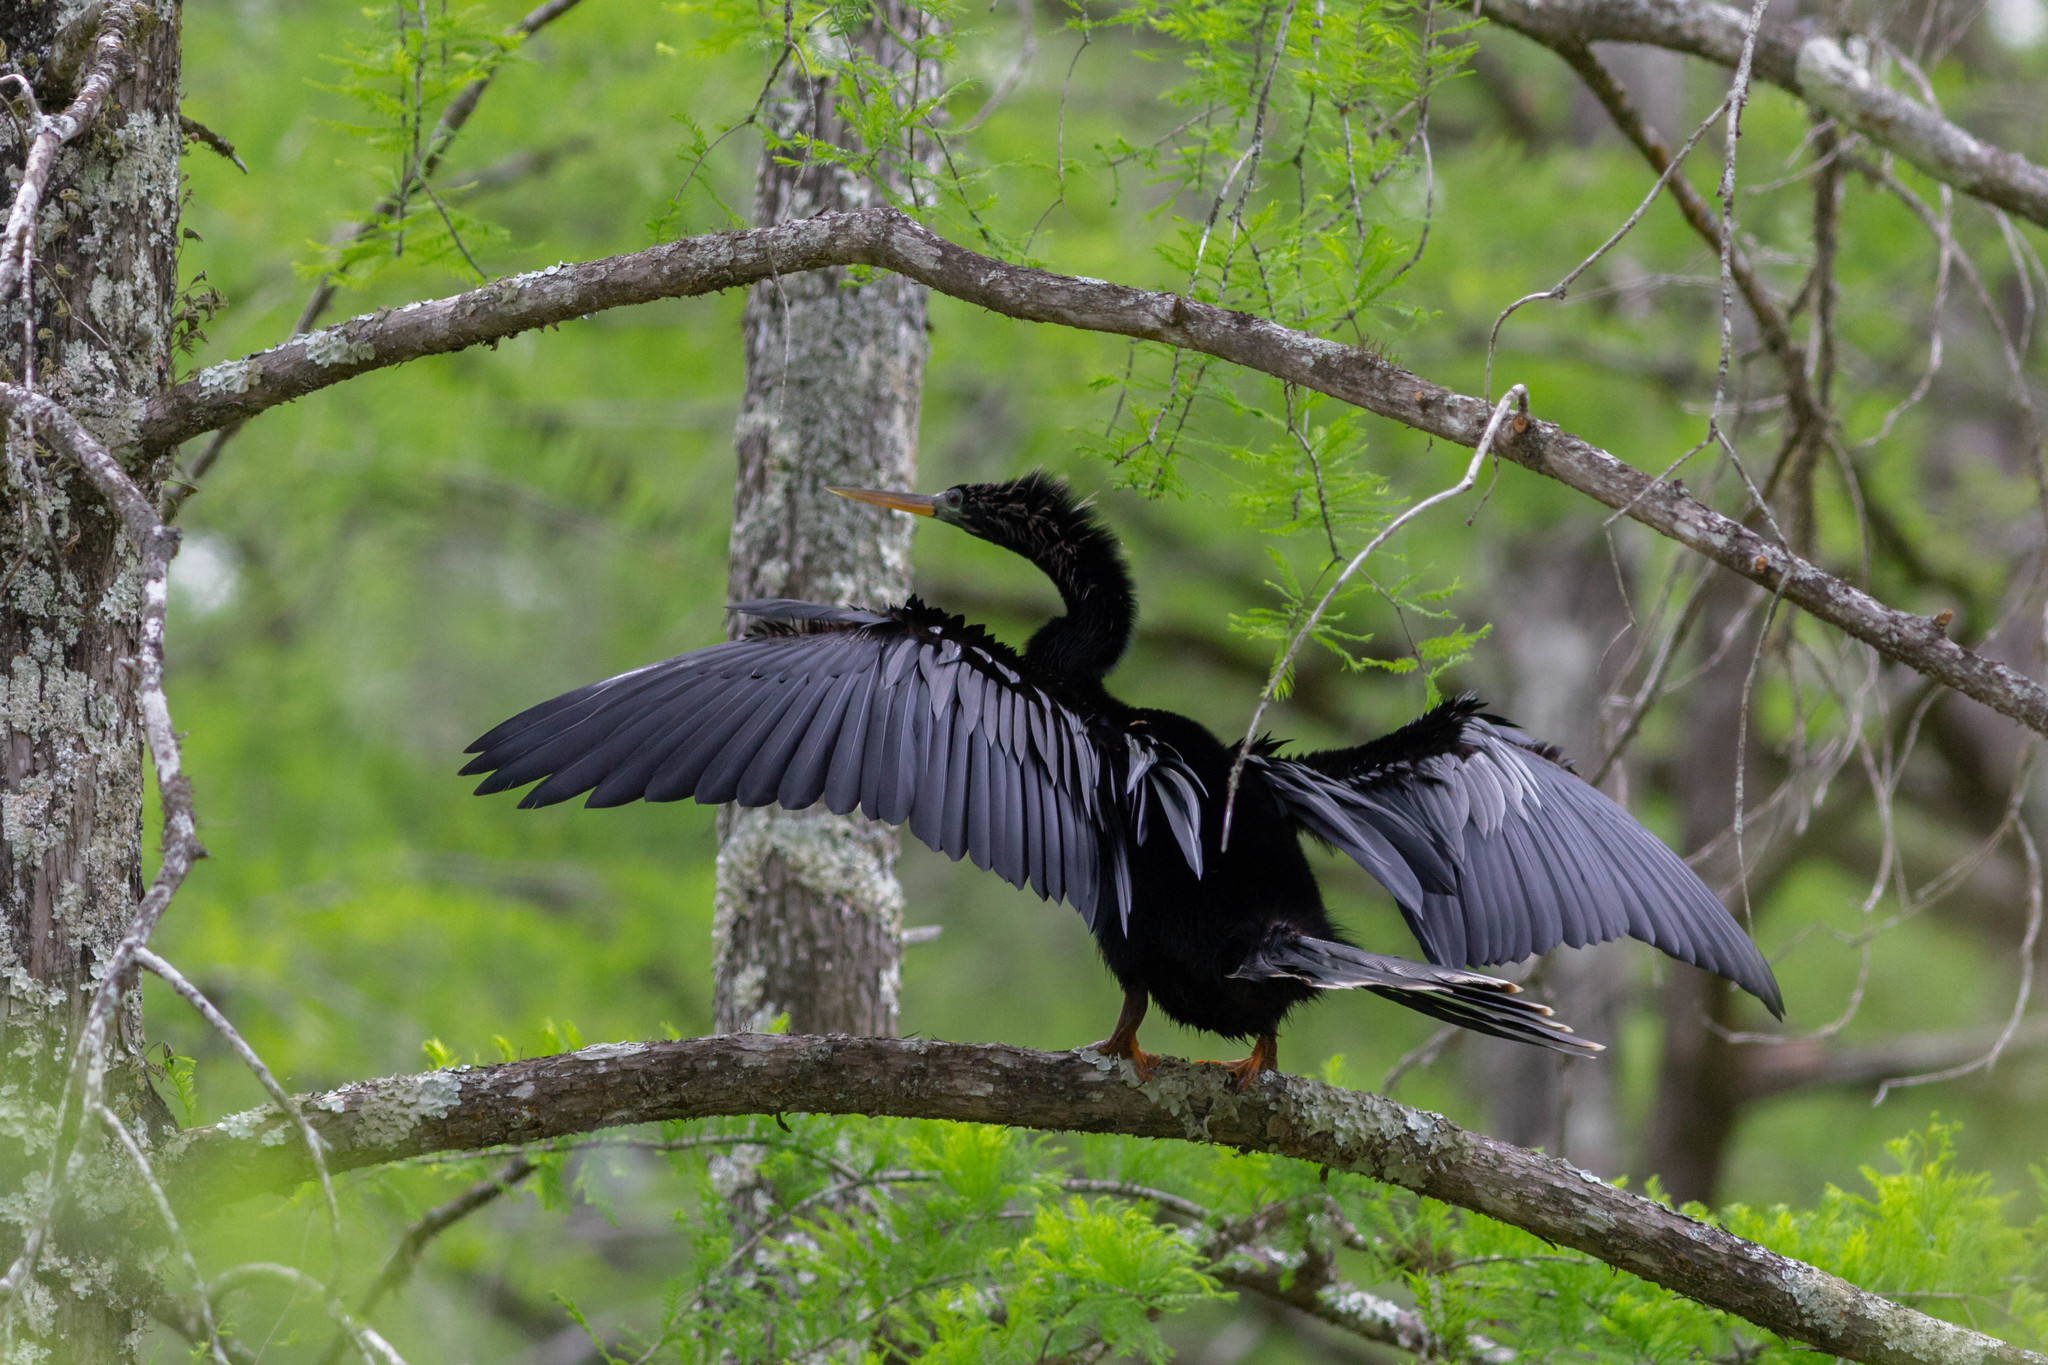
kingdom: Animalia
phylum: Chordata
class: Aves
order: Suliformes
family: Anhingidae
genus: Anhinga
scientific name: Anhinga anhinga
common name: Anhinga
